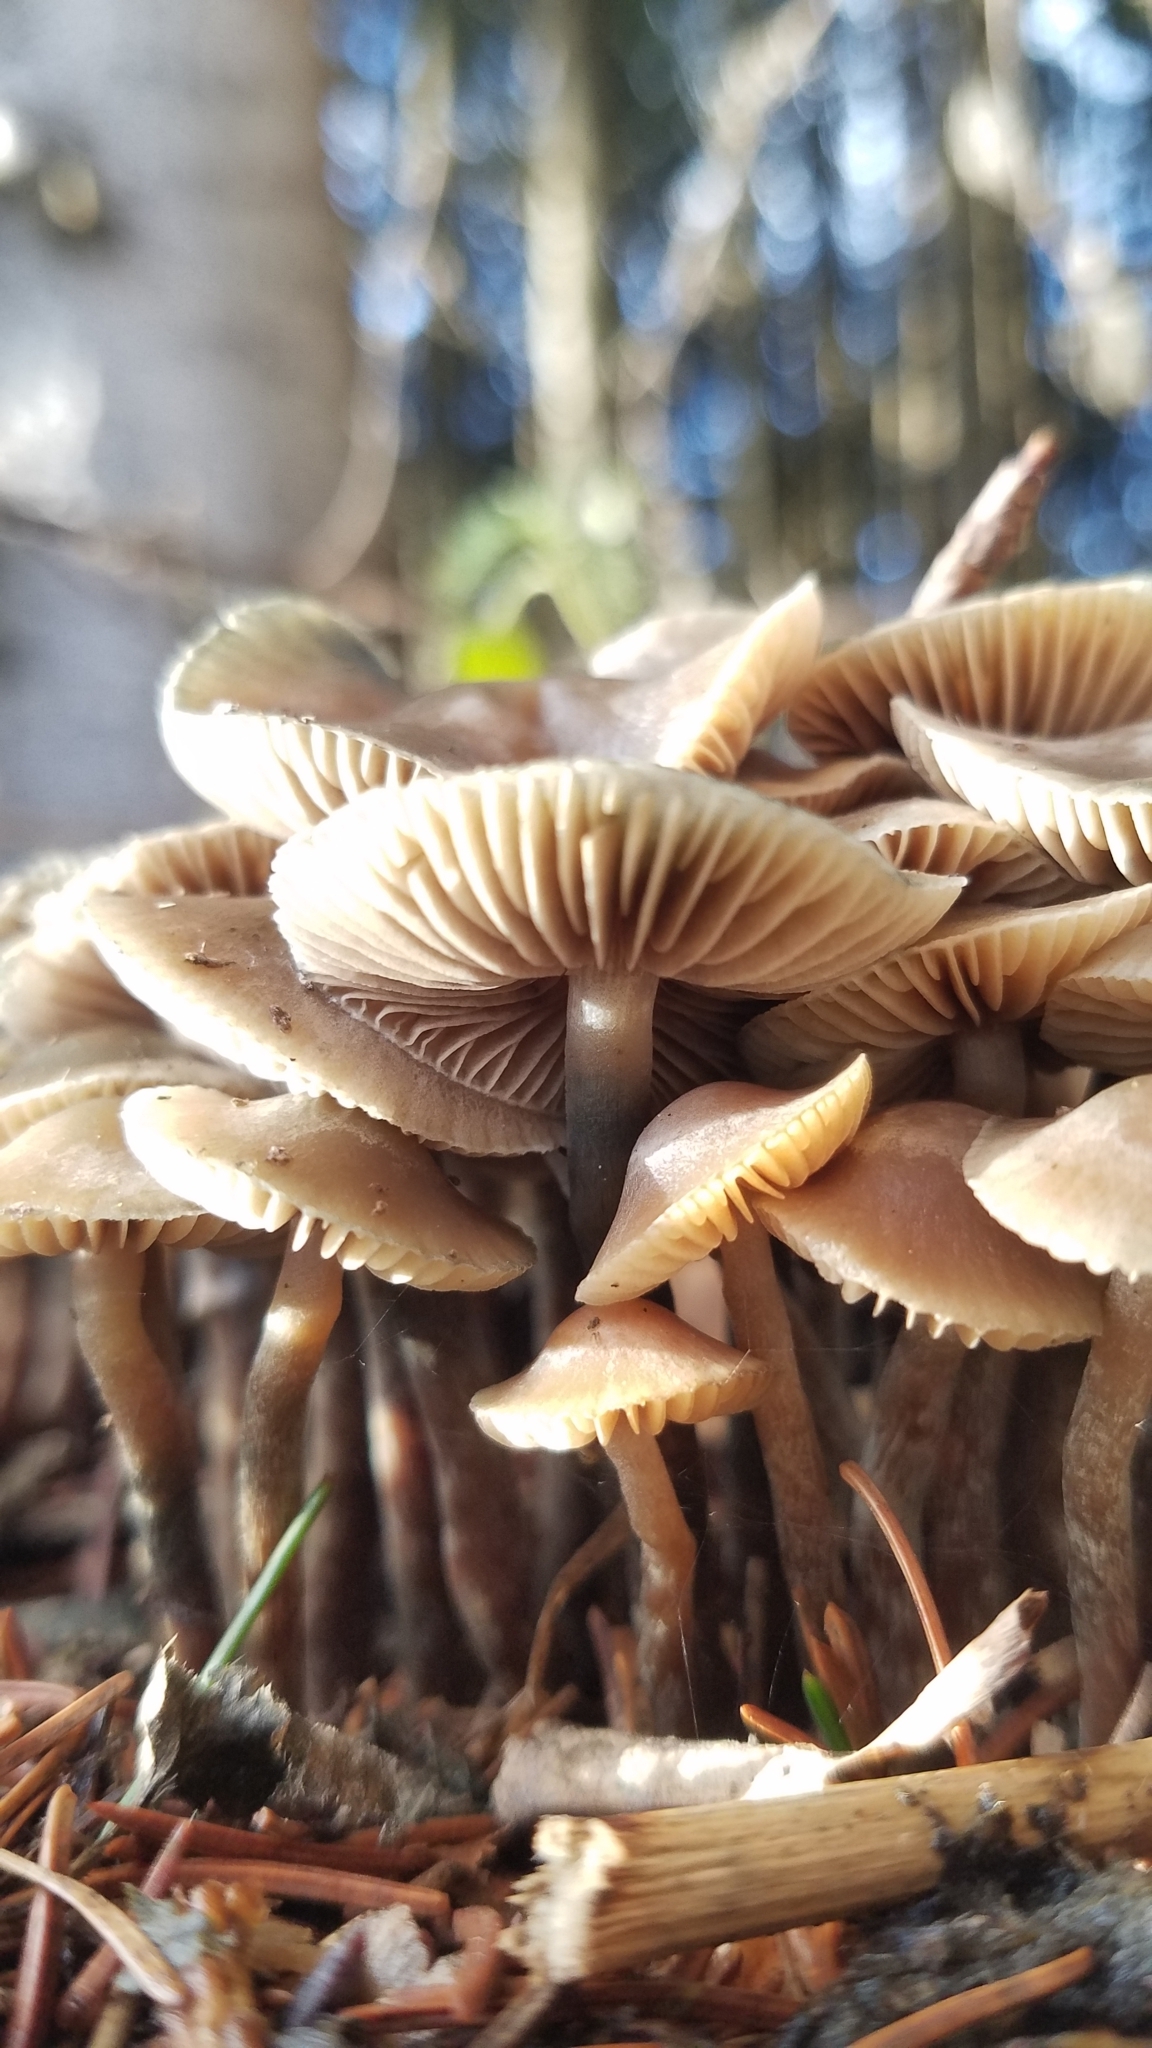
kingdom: Fungi
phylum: Basidiomycota
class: Agaricomycetes
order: Agaricales
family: Hymenogastraceae
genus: Psilocybe
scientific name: Psilocybe serbica
